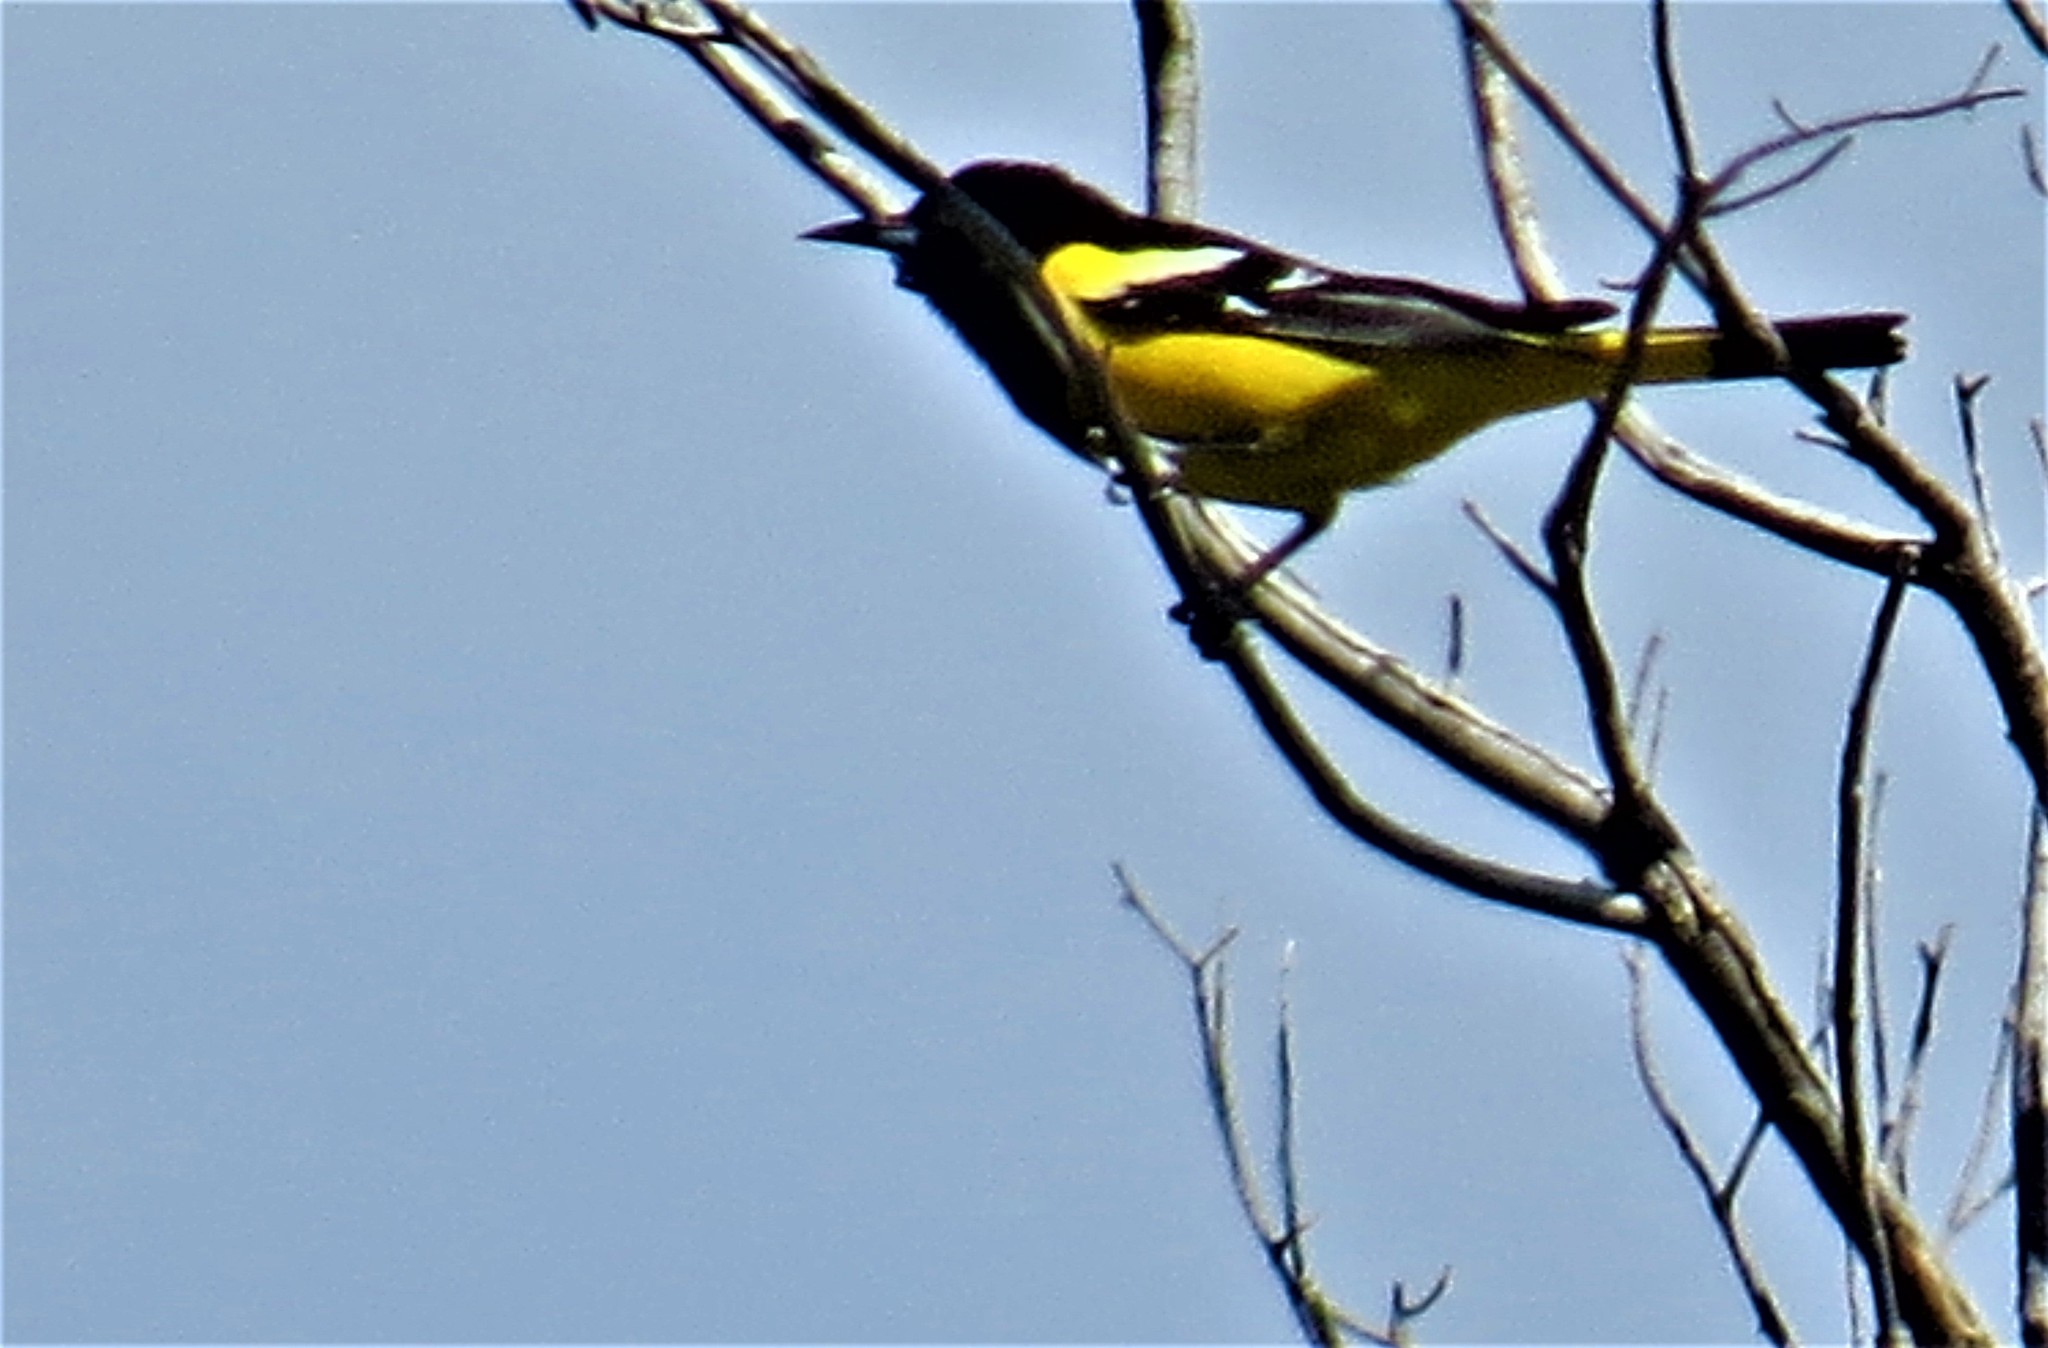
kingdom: Animalia
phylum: Chordata
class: Aves
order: Passeriformes
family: Icteridae
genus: Icterus
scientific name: Icterus parisorum
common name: Scott's oriole
